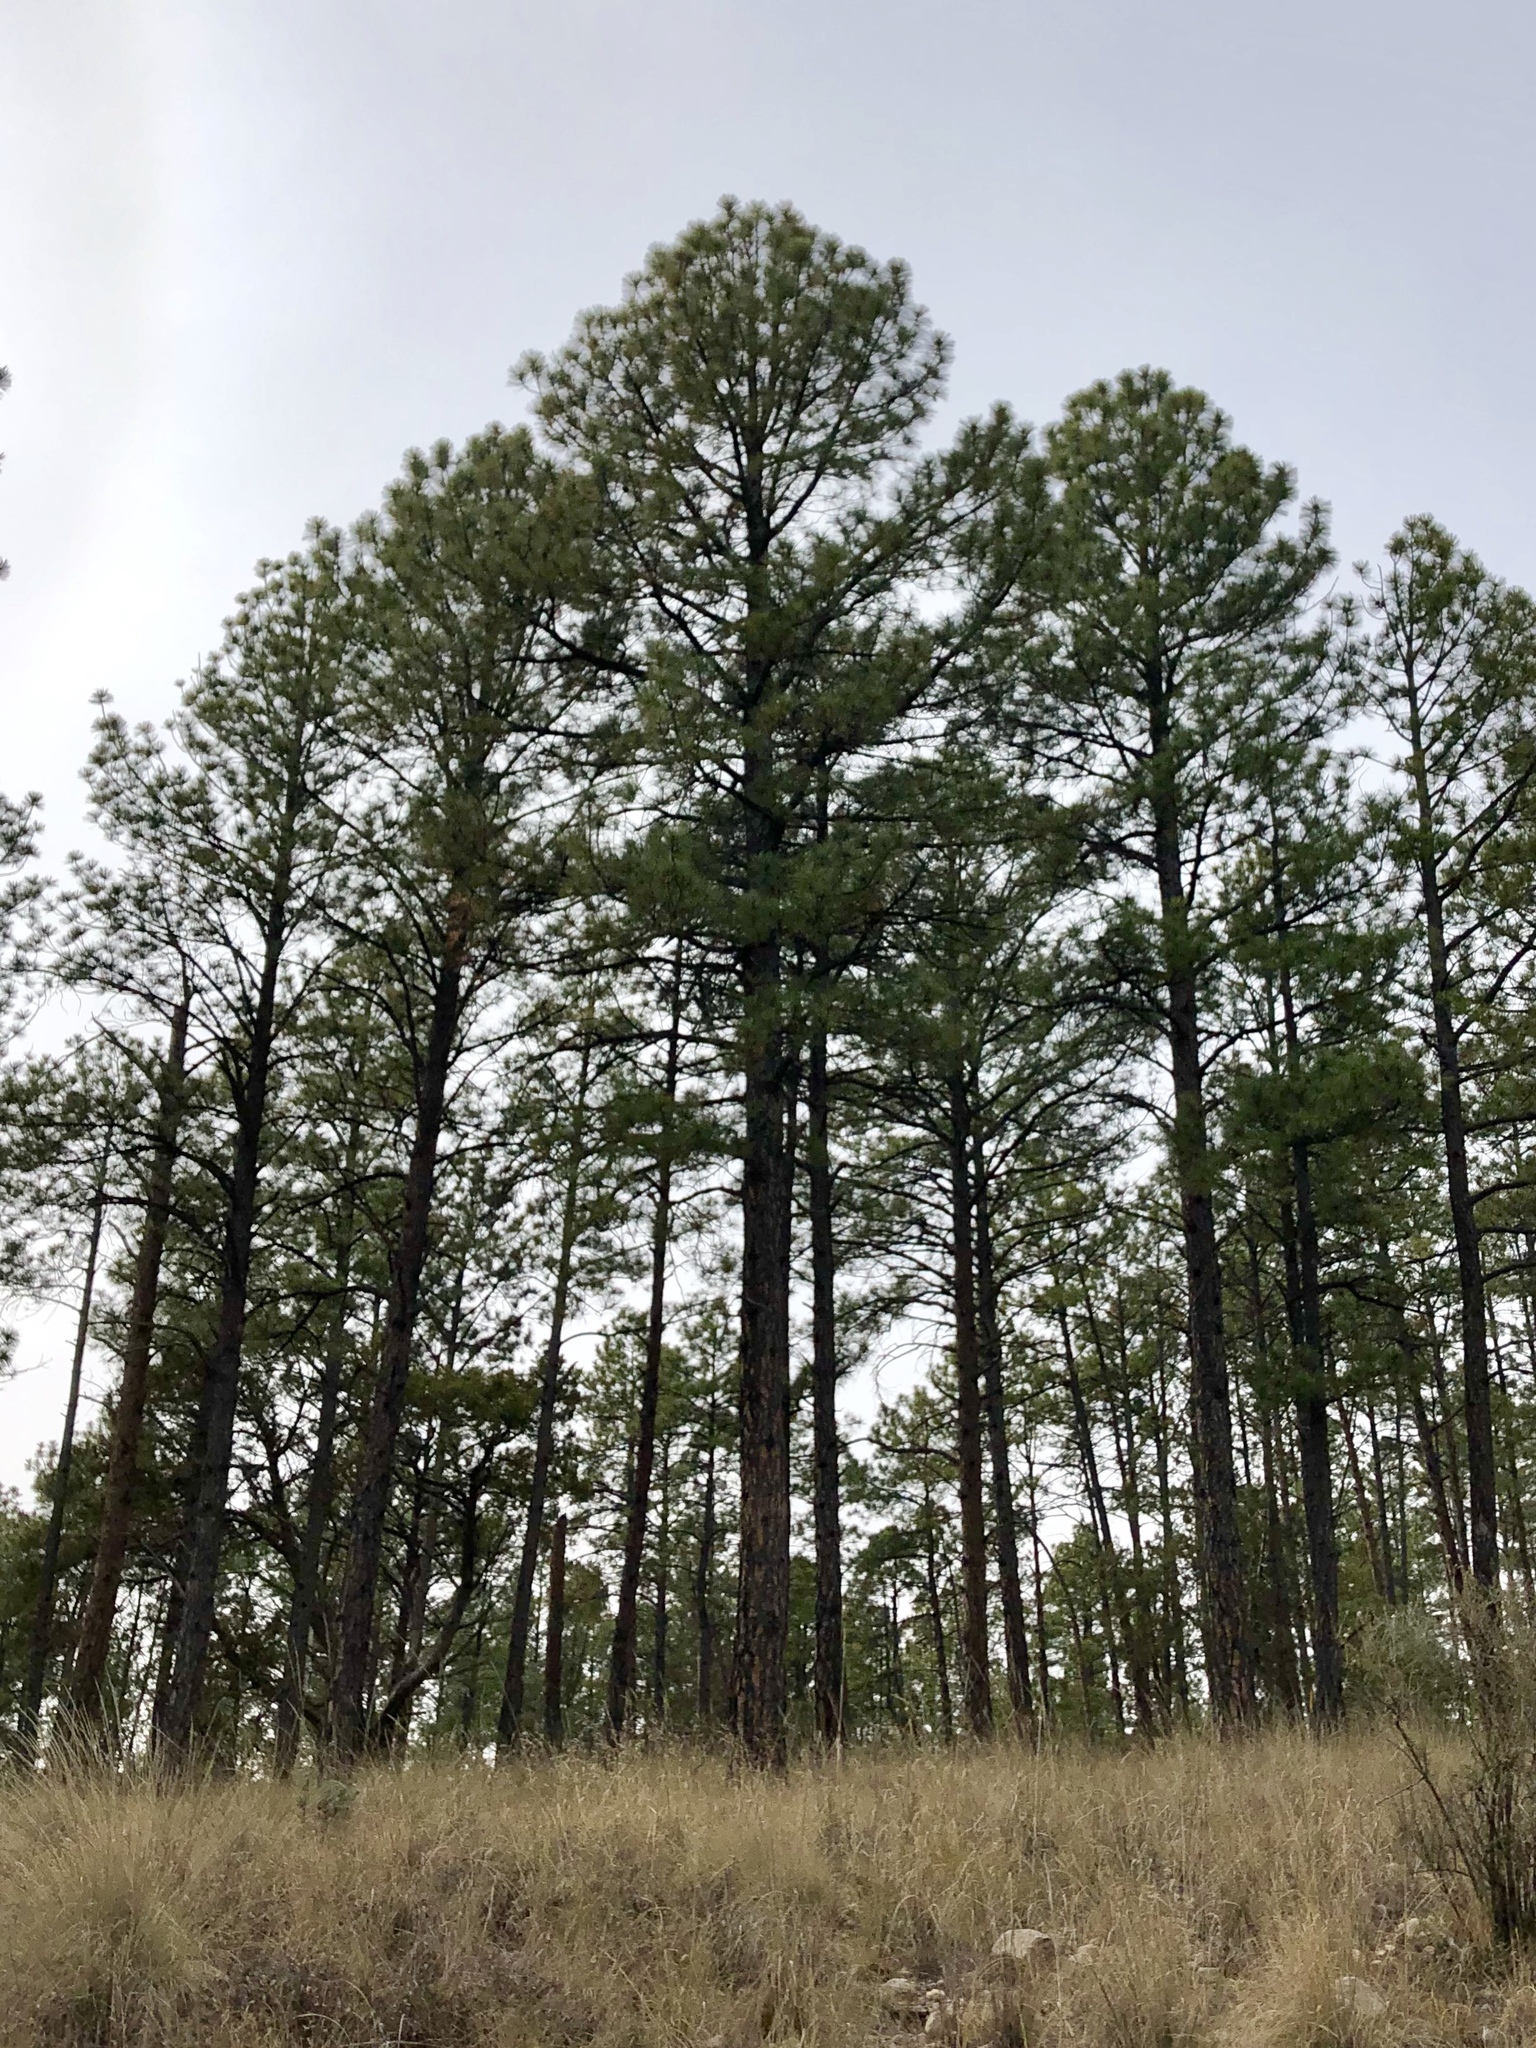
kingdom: Plantae
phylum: Tracheophyta
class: Pinopsida
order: Pinales
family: Pinaceae
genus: Pinus
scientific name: Pinus ponderosa
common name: Western yellow-pine
